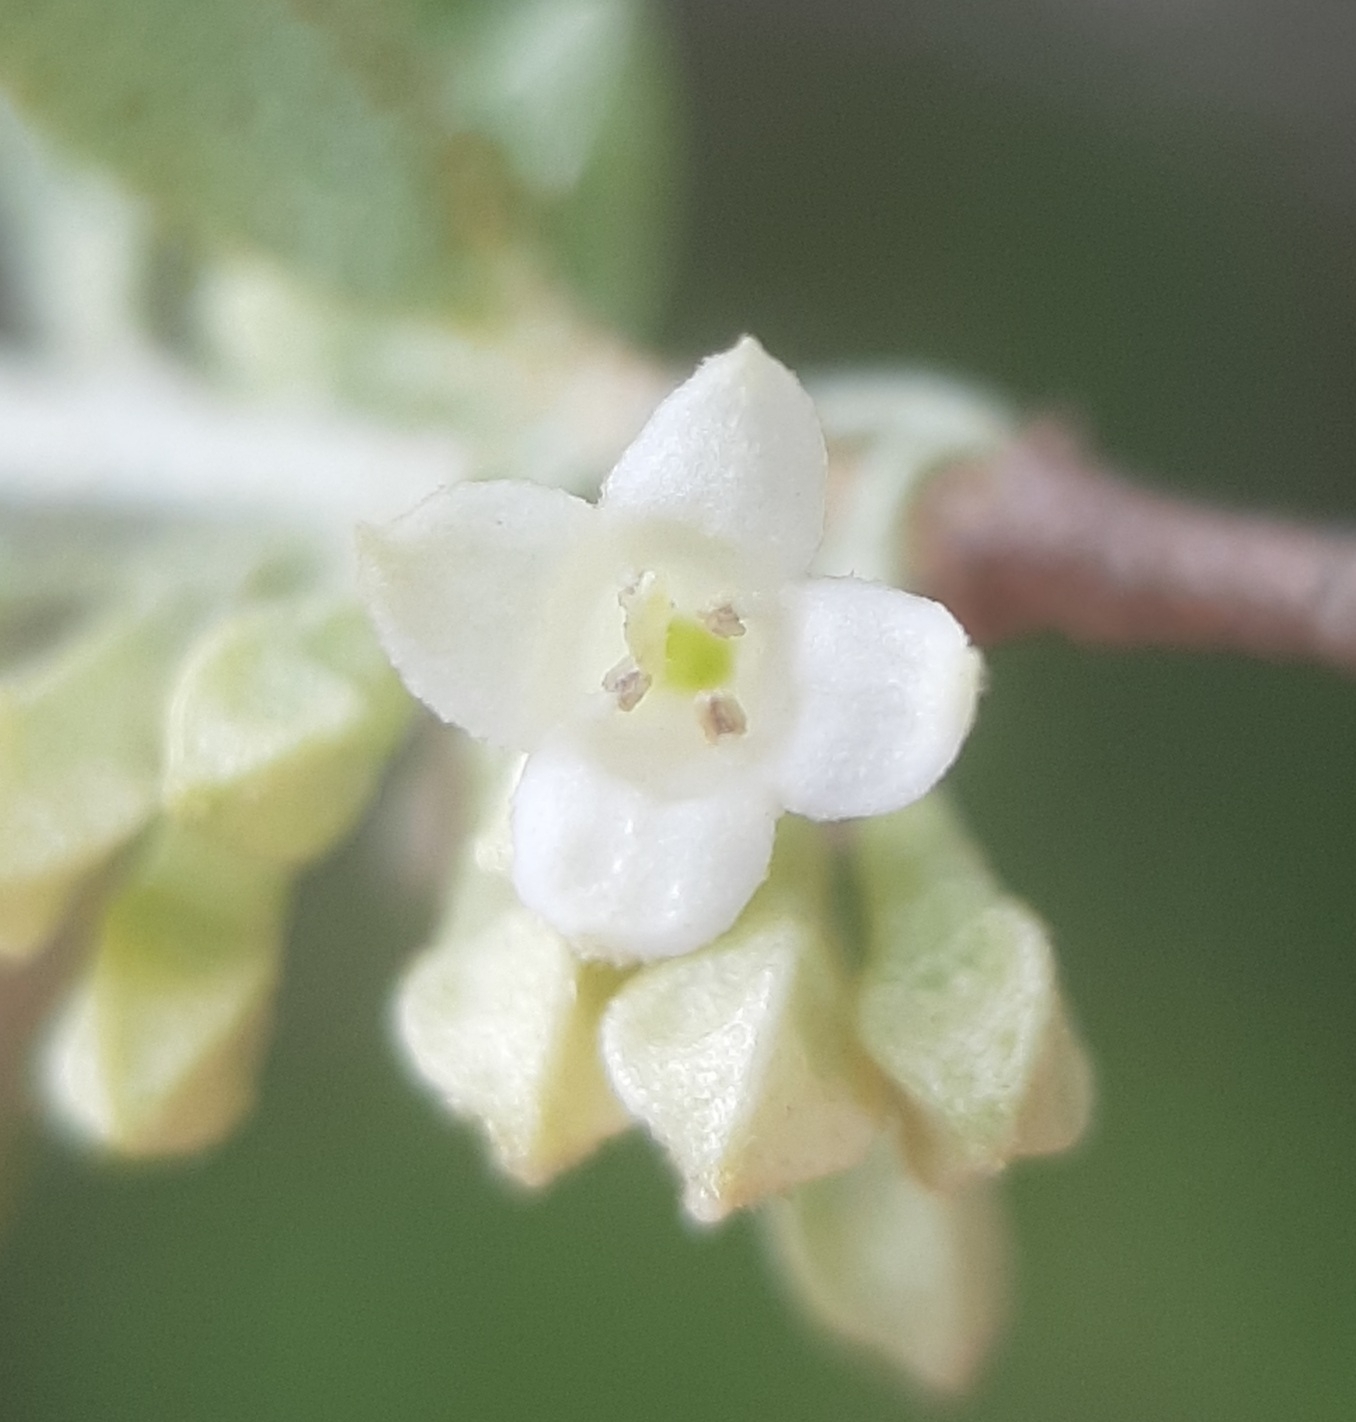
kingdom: Plantae
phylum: Tracheophyta
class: Magnoliopsida
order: Rosales
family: Elaeagnaceae
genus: Elaeagnus
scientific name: Elaeagnus umbellata
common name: Autumn olive
